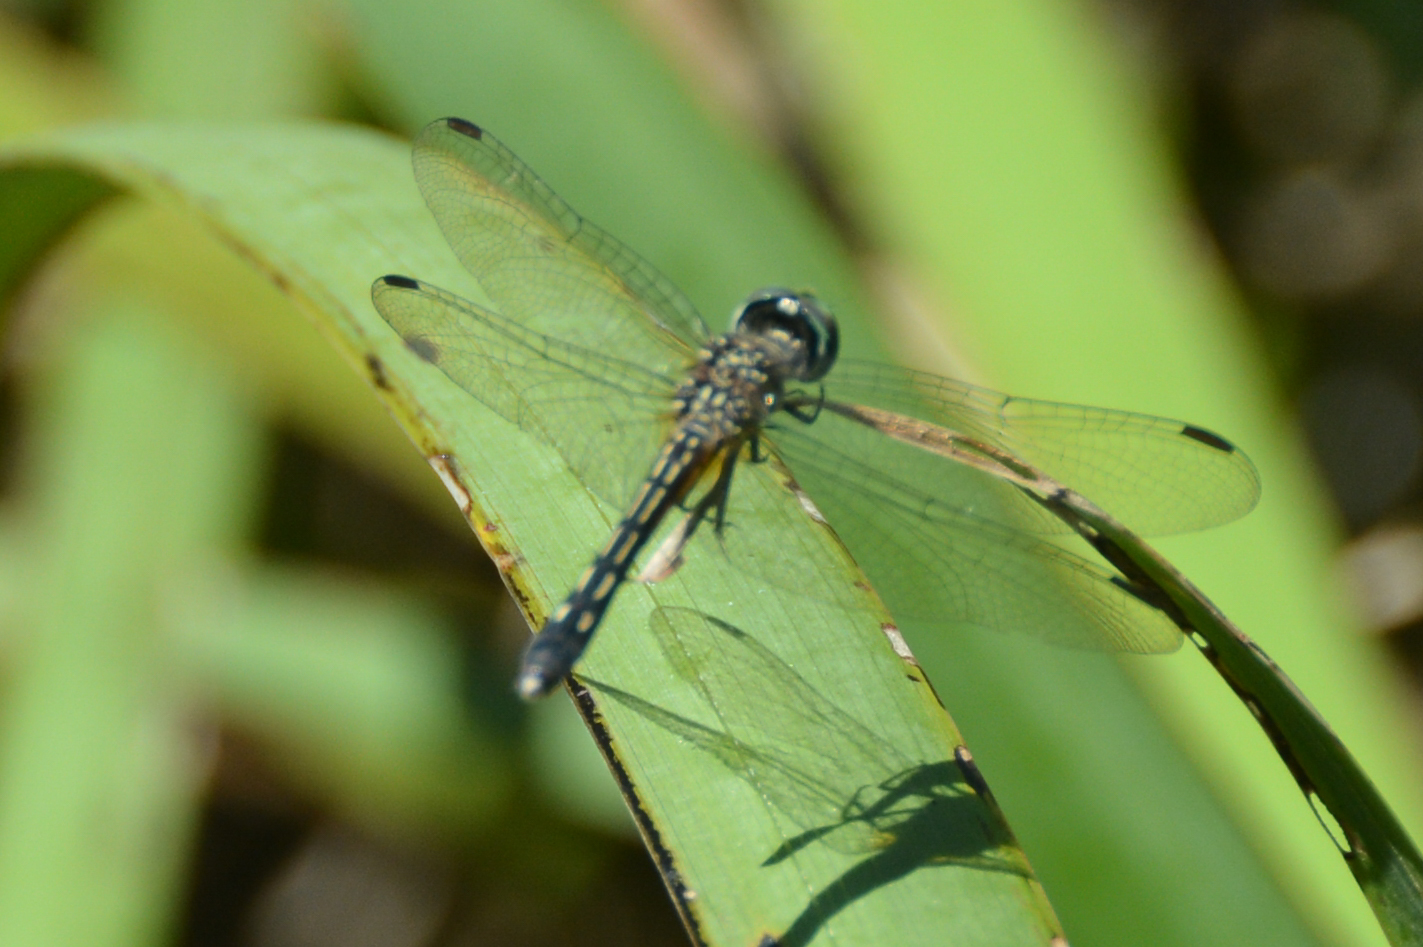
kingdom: Animalia
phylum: Arthropoda
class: Insecta
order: Odonata
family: Libellulidae
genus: Pachydiplax
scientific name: Pachydiplax longipennis
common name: Blue dasher
